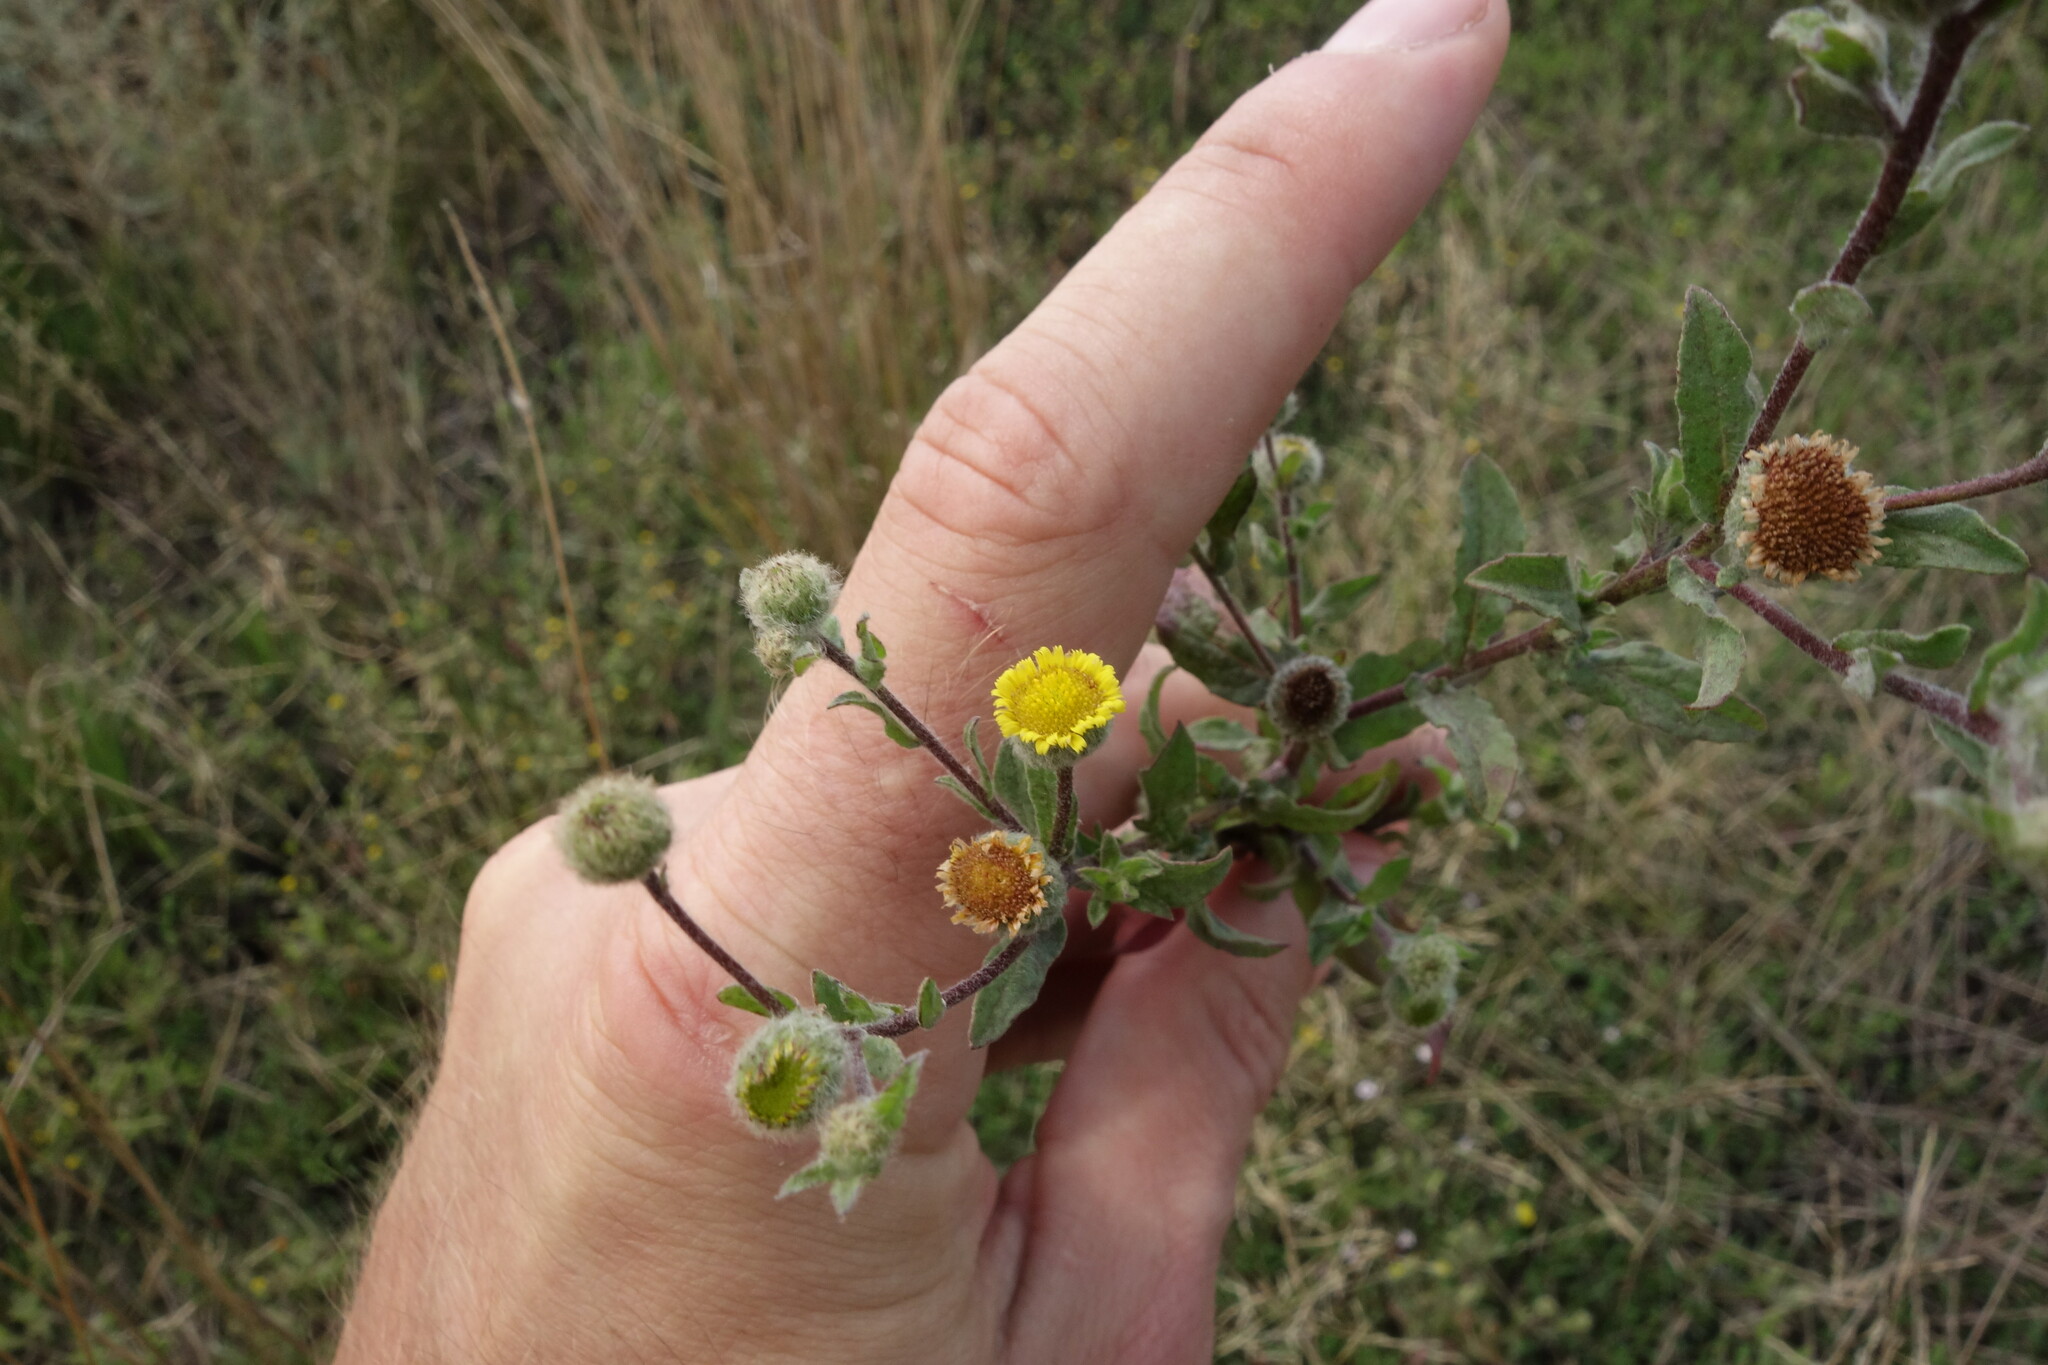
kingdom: Plantae
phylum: Tracheophyta
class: Magnoliopsida
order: Asterales
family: Asteraceae
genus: Pulicaria
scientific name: Pulicaria vulgaris
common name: Small fleabane
